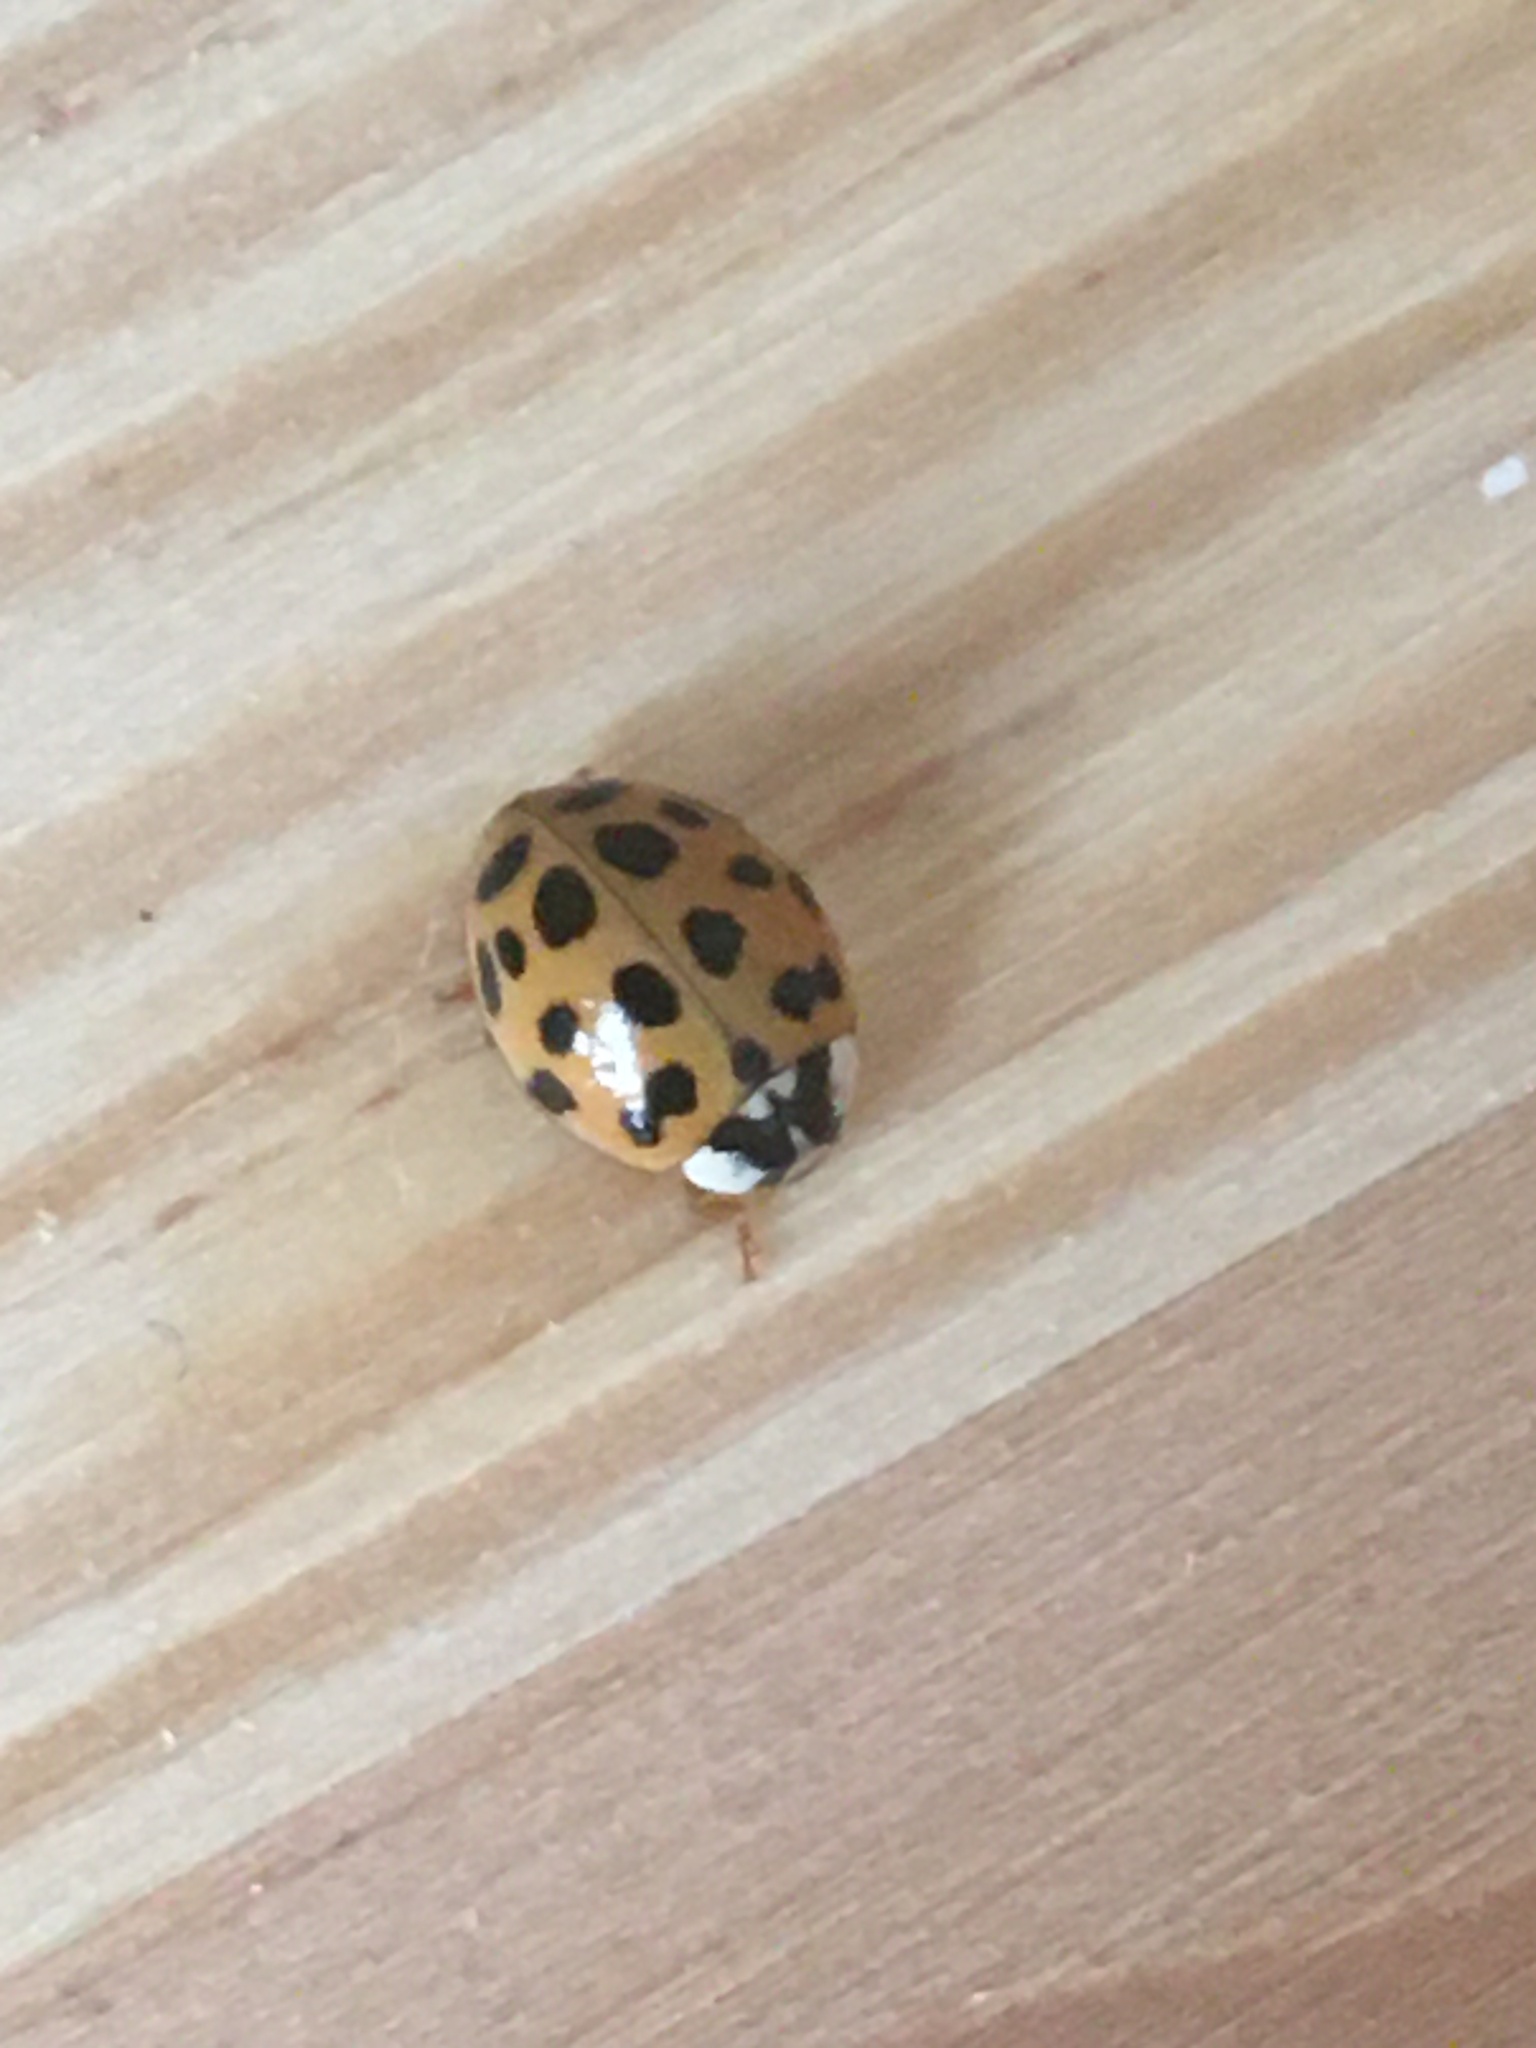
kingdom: Animalia
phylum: Arthropoda
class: Insecta
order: Coleoptera
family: Coccinellidae
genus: Harmonia
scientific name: Harmonia axyridis
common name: Harlequin ladybird
